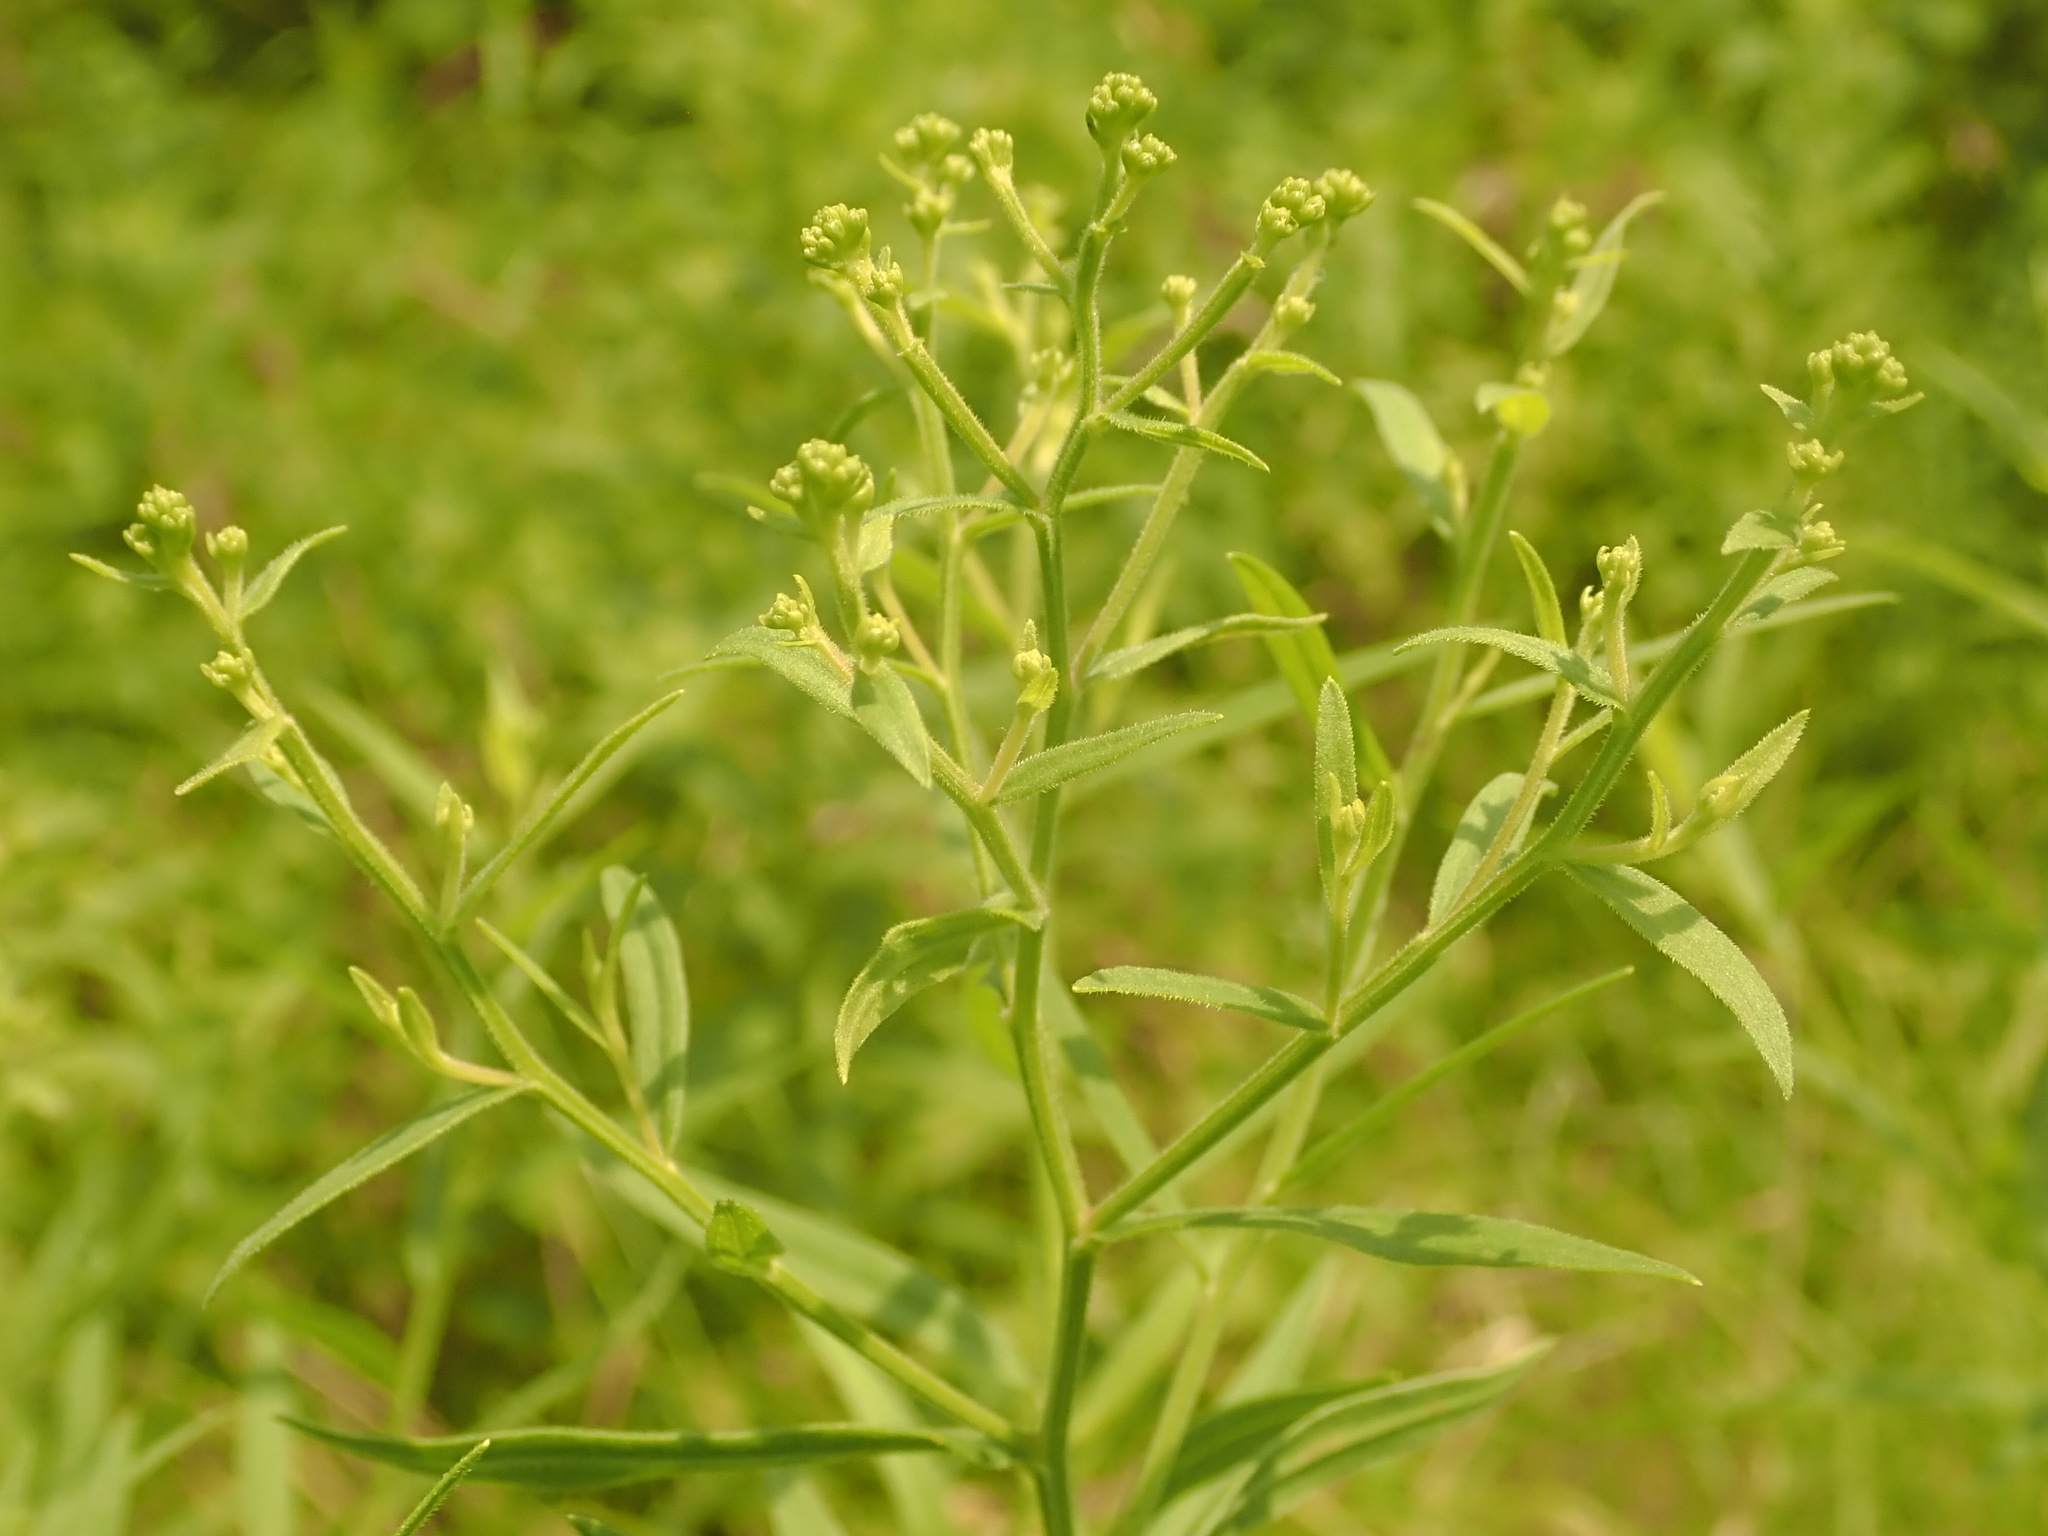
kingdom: Plantae
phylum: Tracheophyta
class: Magnoliopsida
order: Asterales
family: Asteraceae
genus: Euthamia
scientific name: Euthamia graminifolia
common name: Common goldentop
